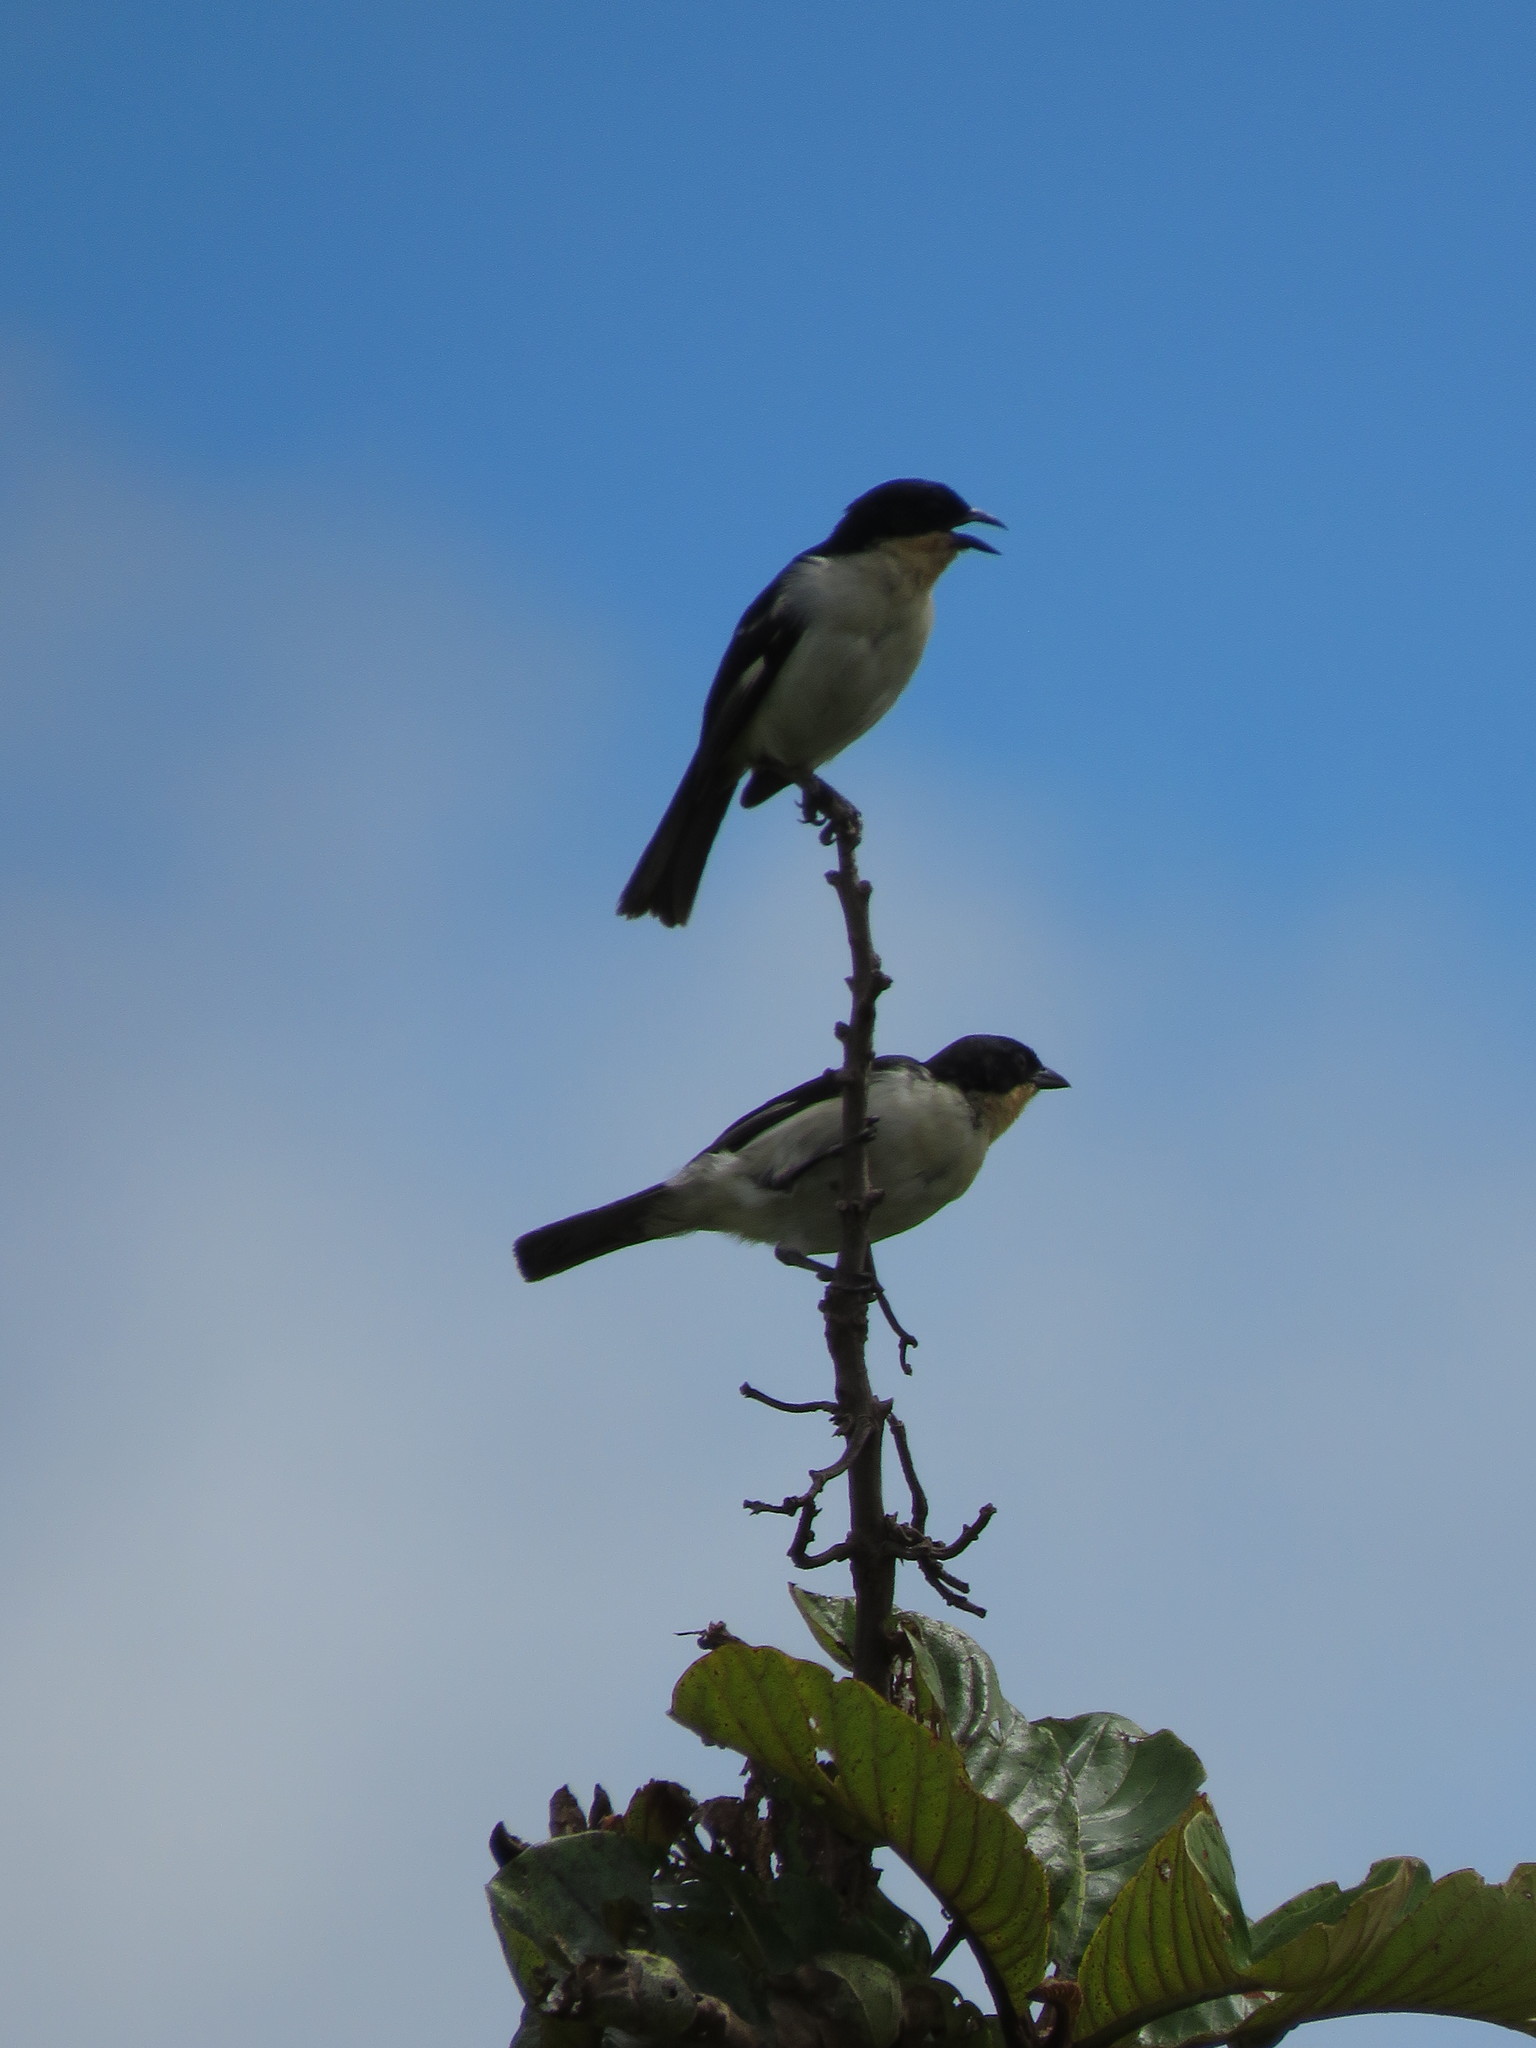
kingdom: Animalia
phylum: Chordata
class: Aves
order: Passeriformes
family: Thraupidae
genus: Cypsnagra
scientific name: Cypsnagra hirundinacea
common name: White-rumped tanager
